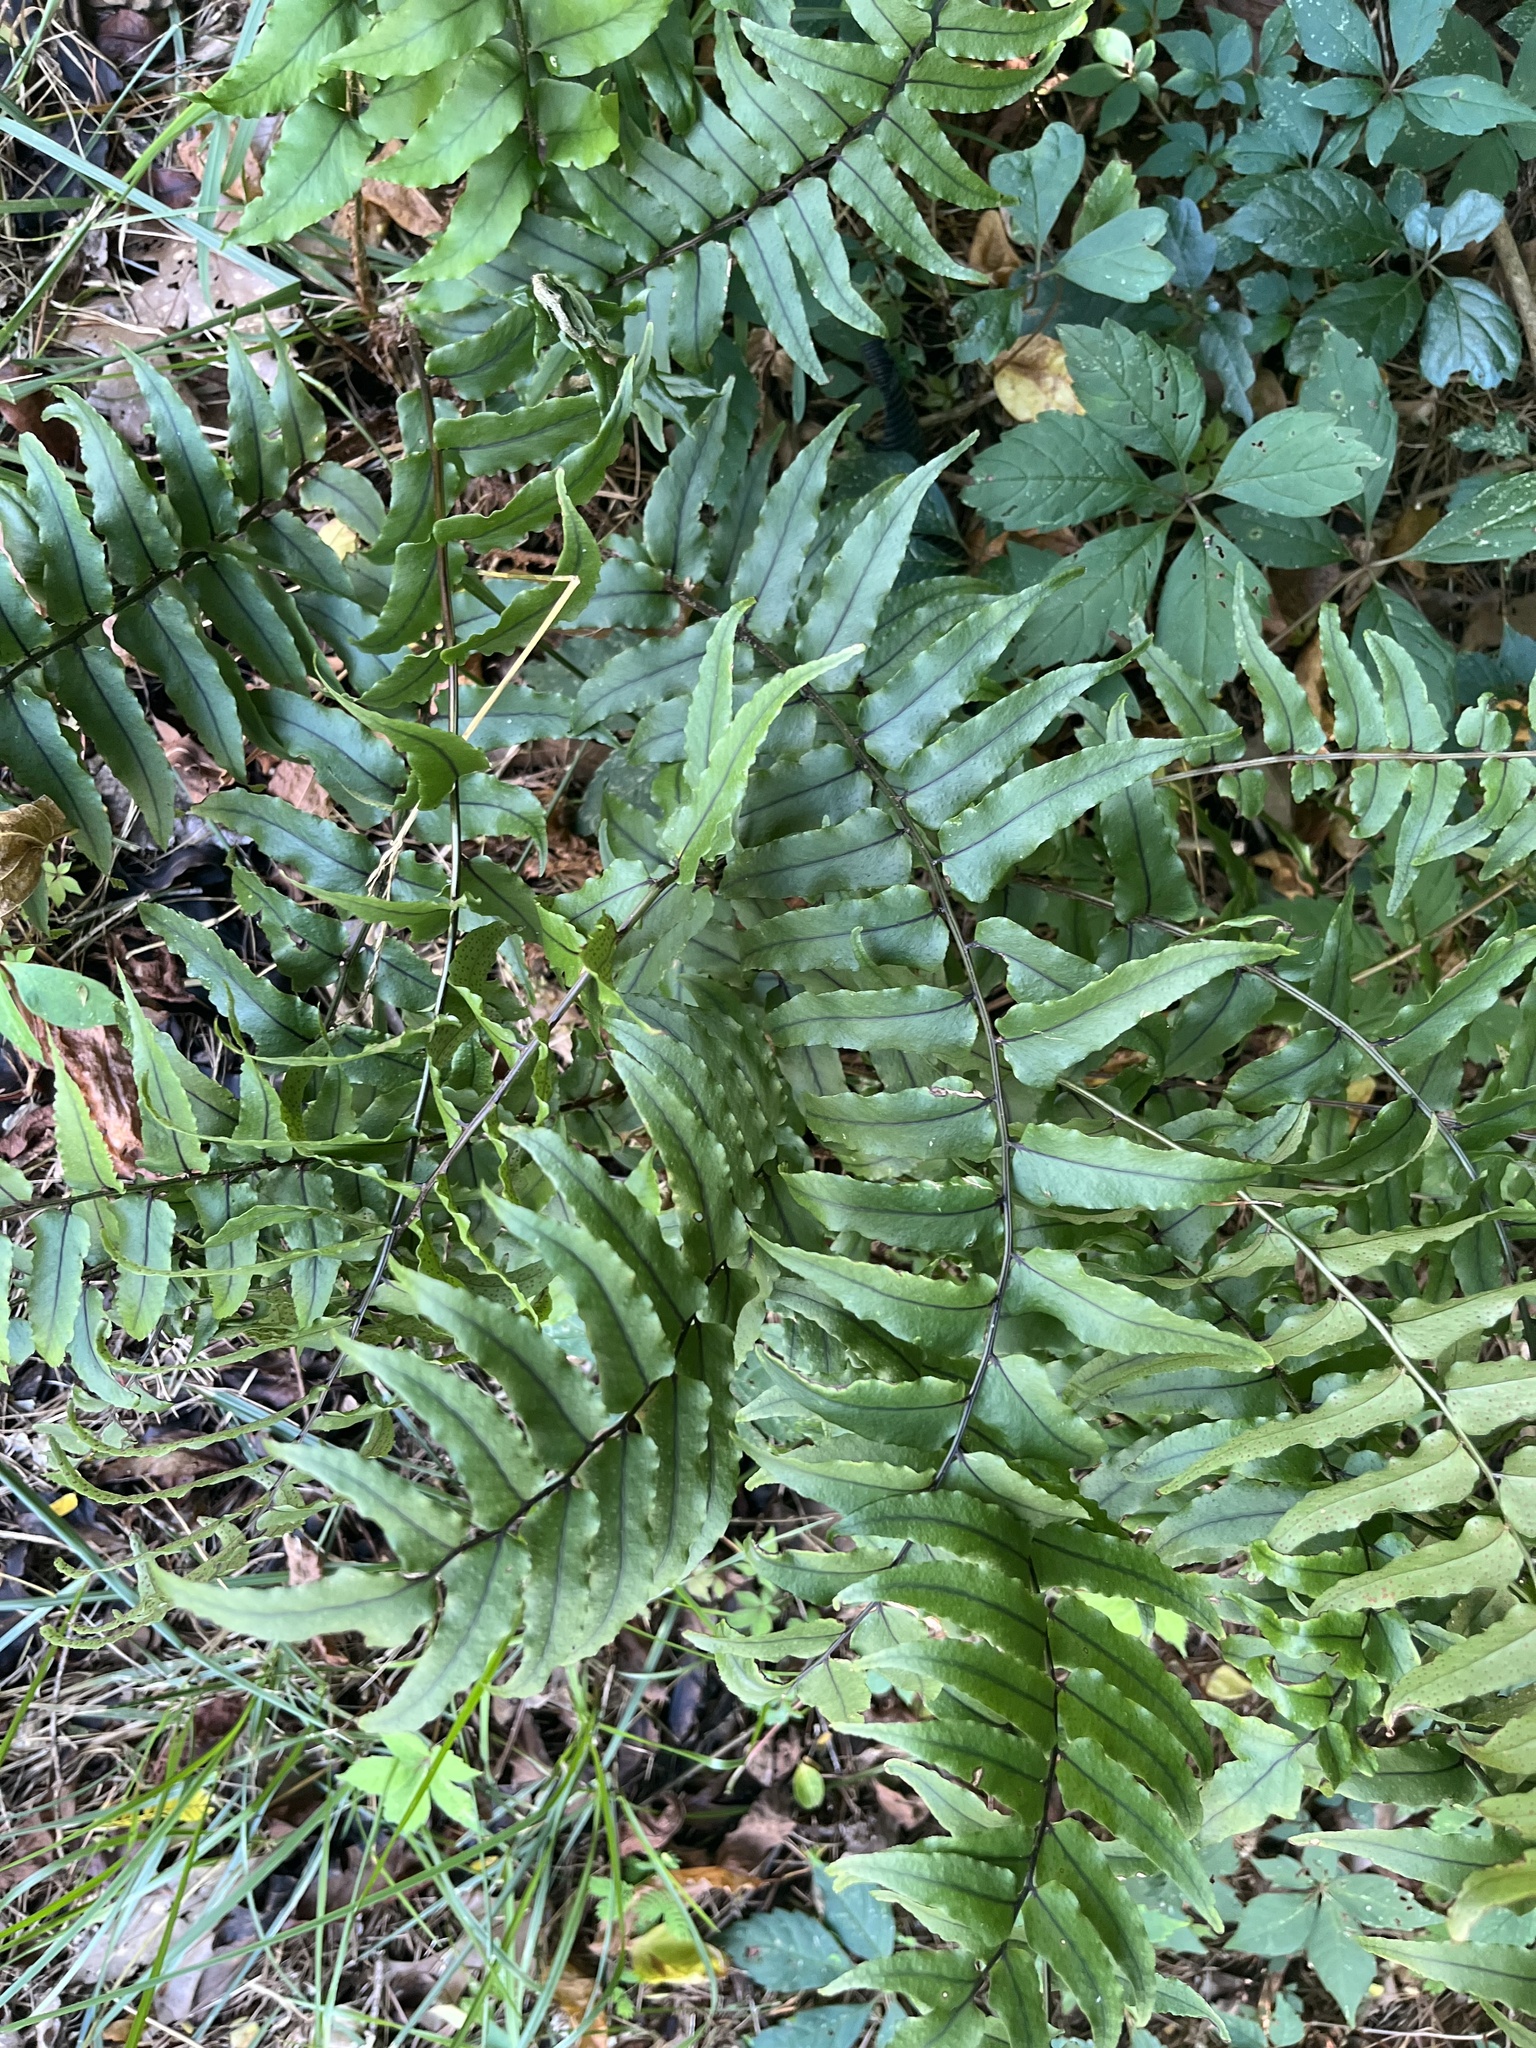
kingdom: Plantae
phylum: Tracheophyta
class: Polypodiopsida
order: Polypodiales
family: Dryopteridaceae
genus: Cyrtomium
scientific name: Cyrtomium fortunei
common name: Asian netvein hollyfern
